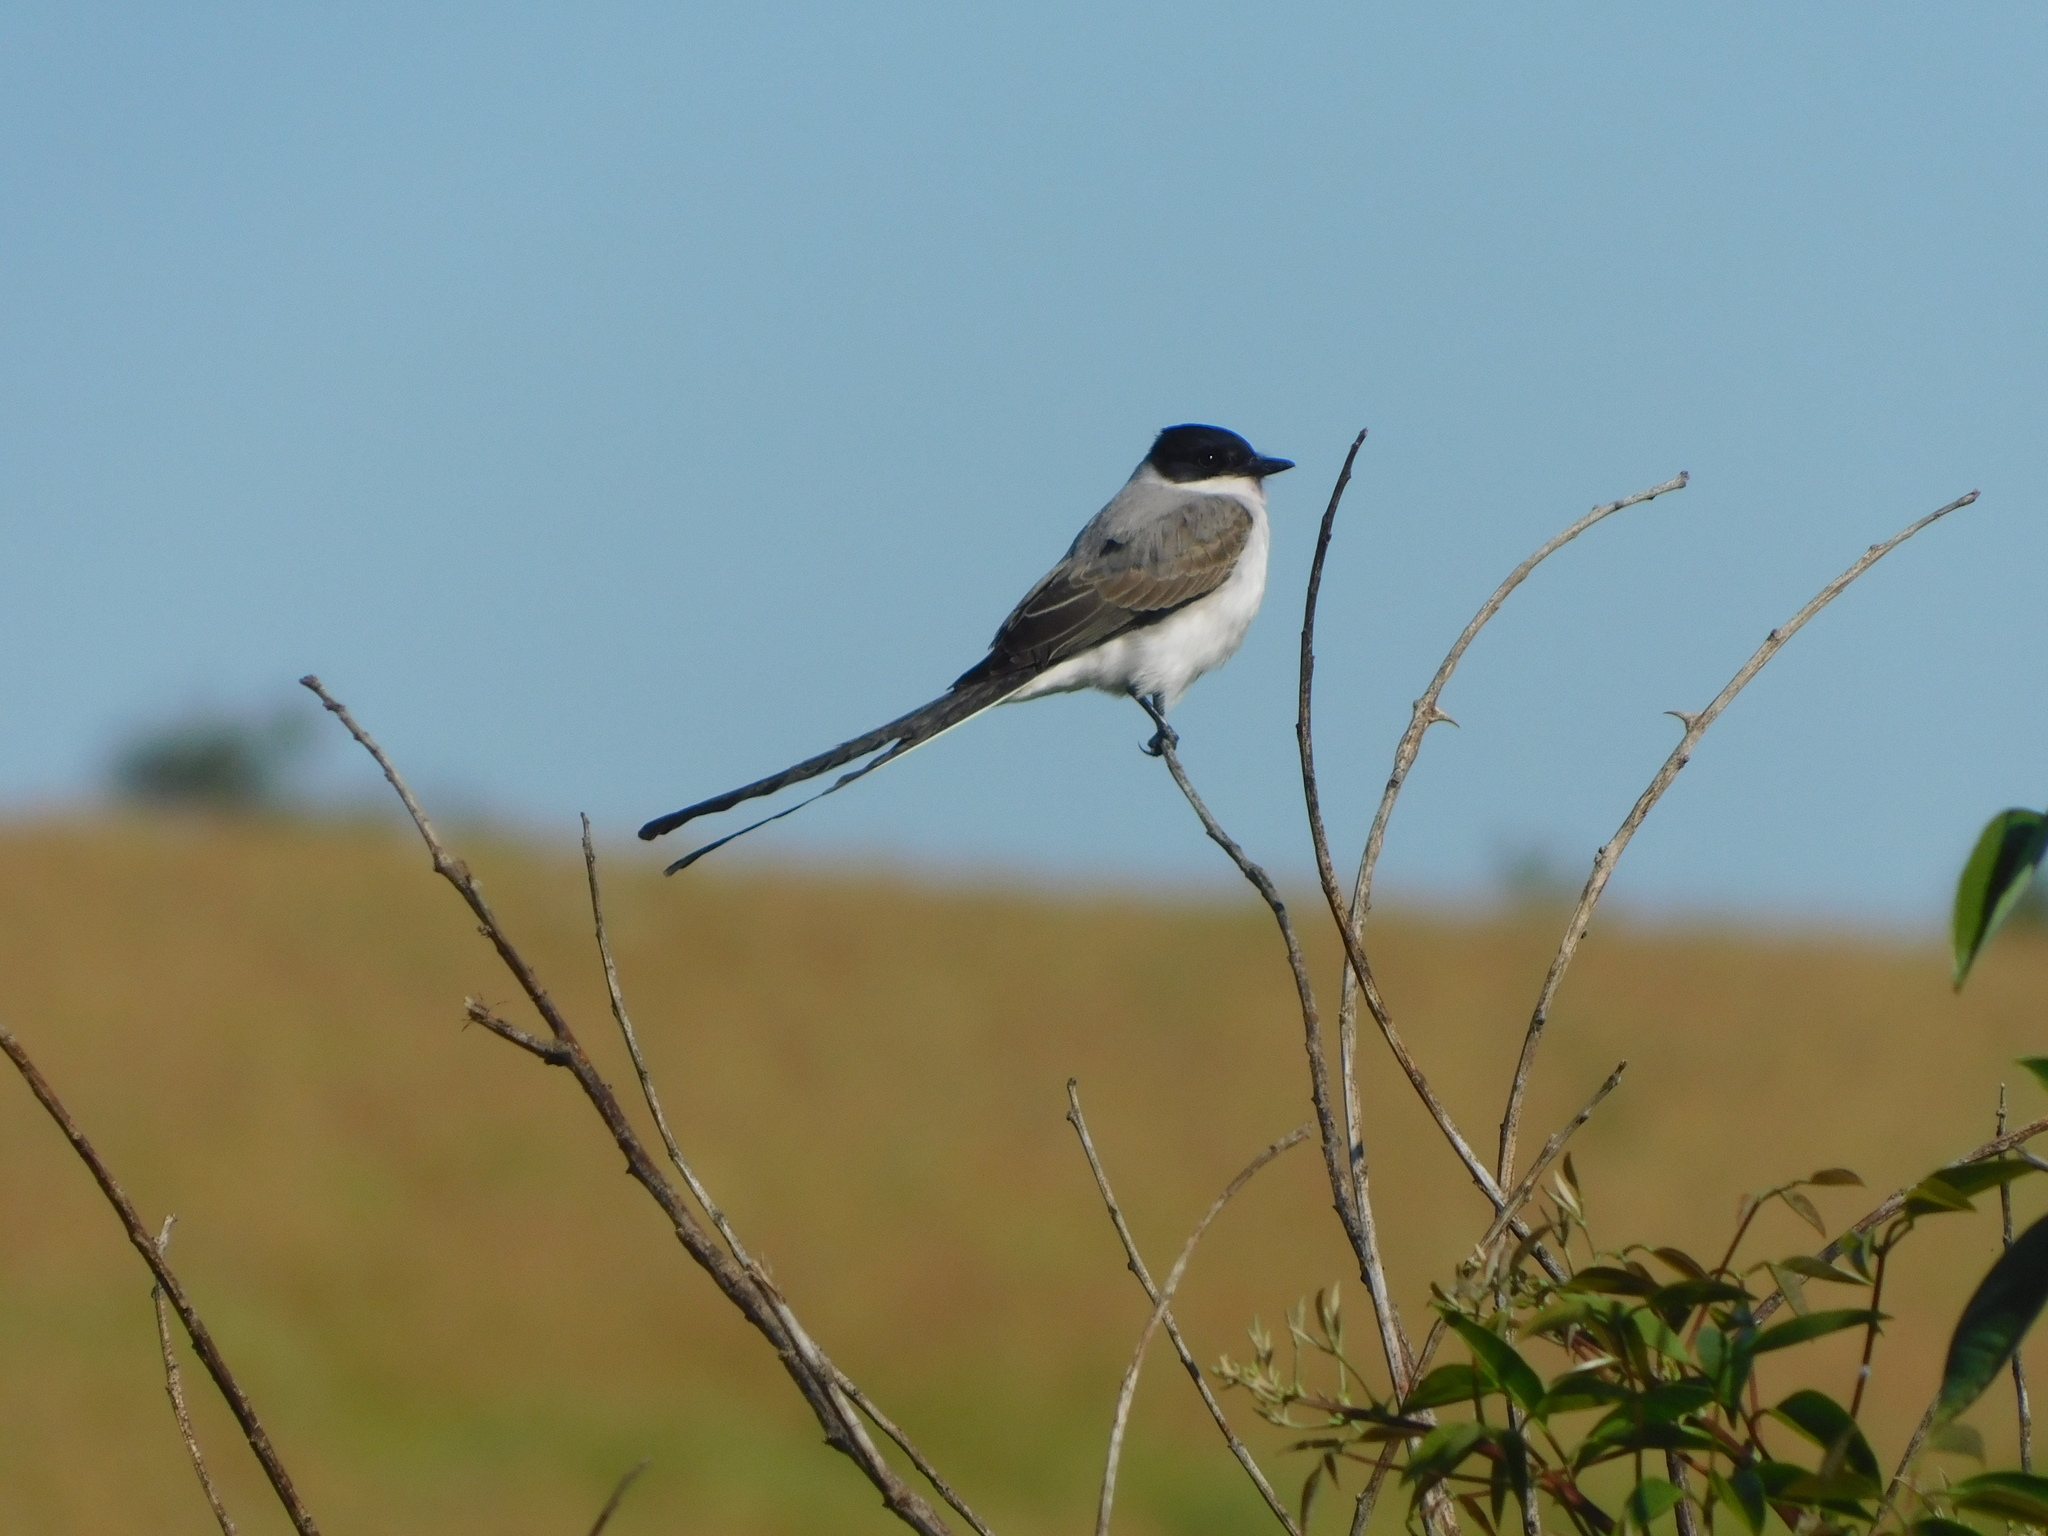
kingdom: Animalia
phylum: Chordata
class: Aves
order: Passeriformes
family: Tyrannidae
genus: Tyrannus
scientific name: Tyrannus savana
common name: Fork-tailed flycatcher
